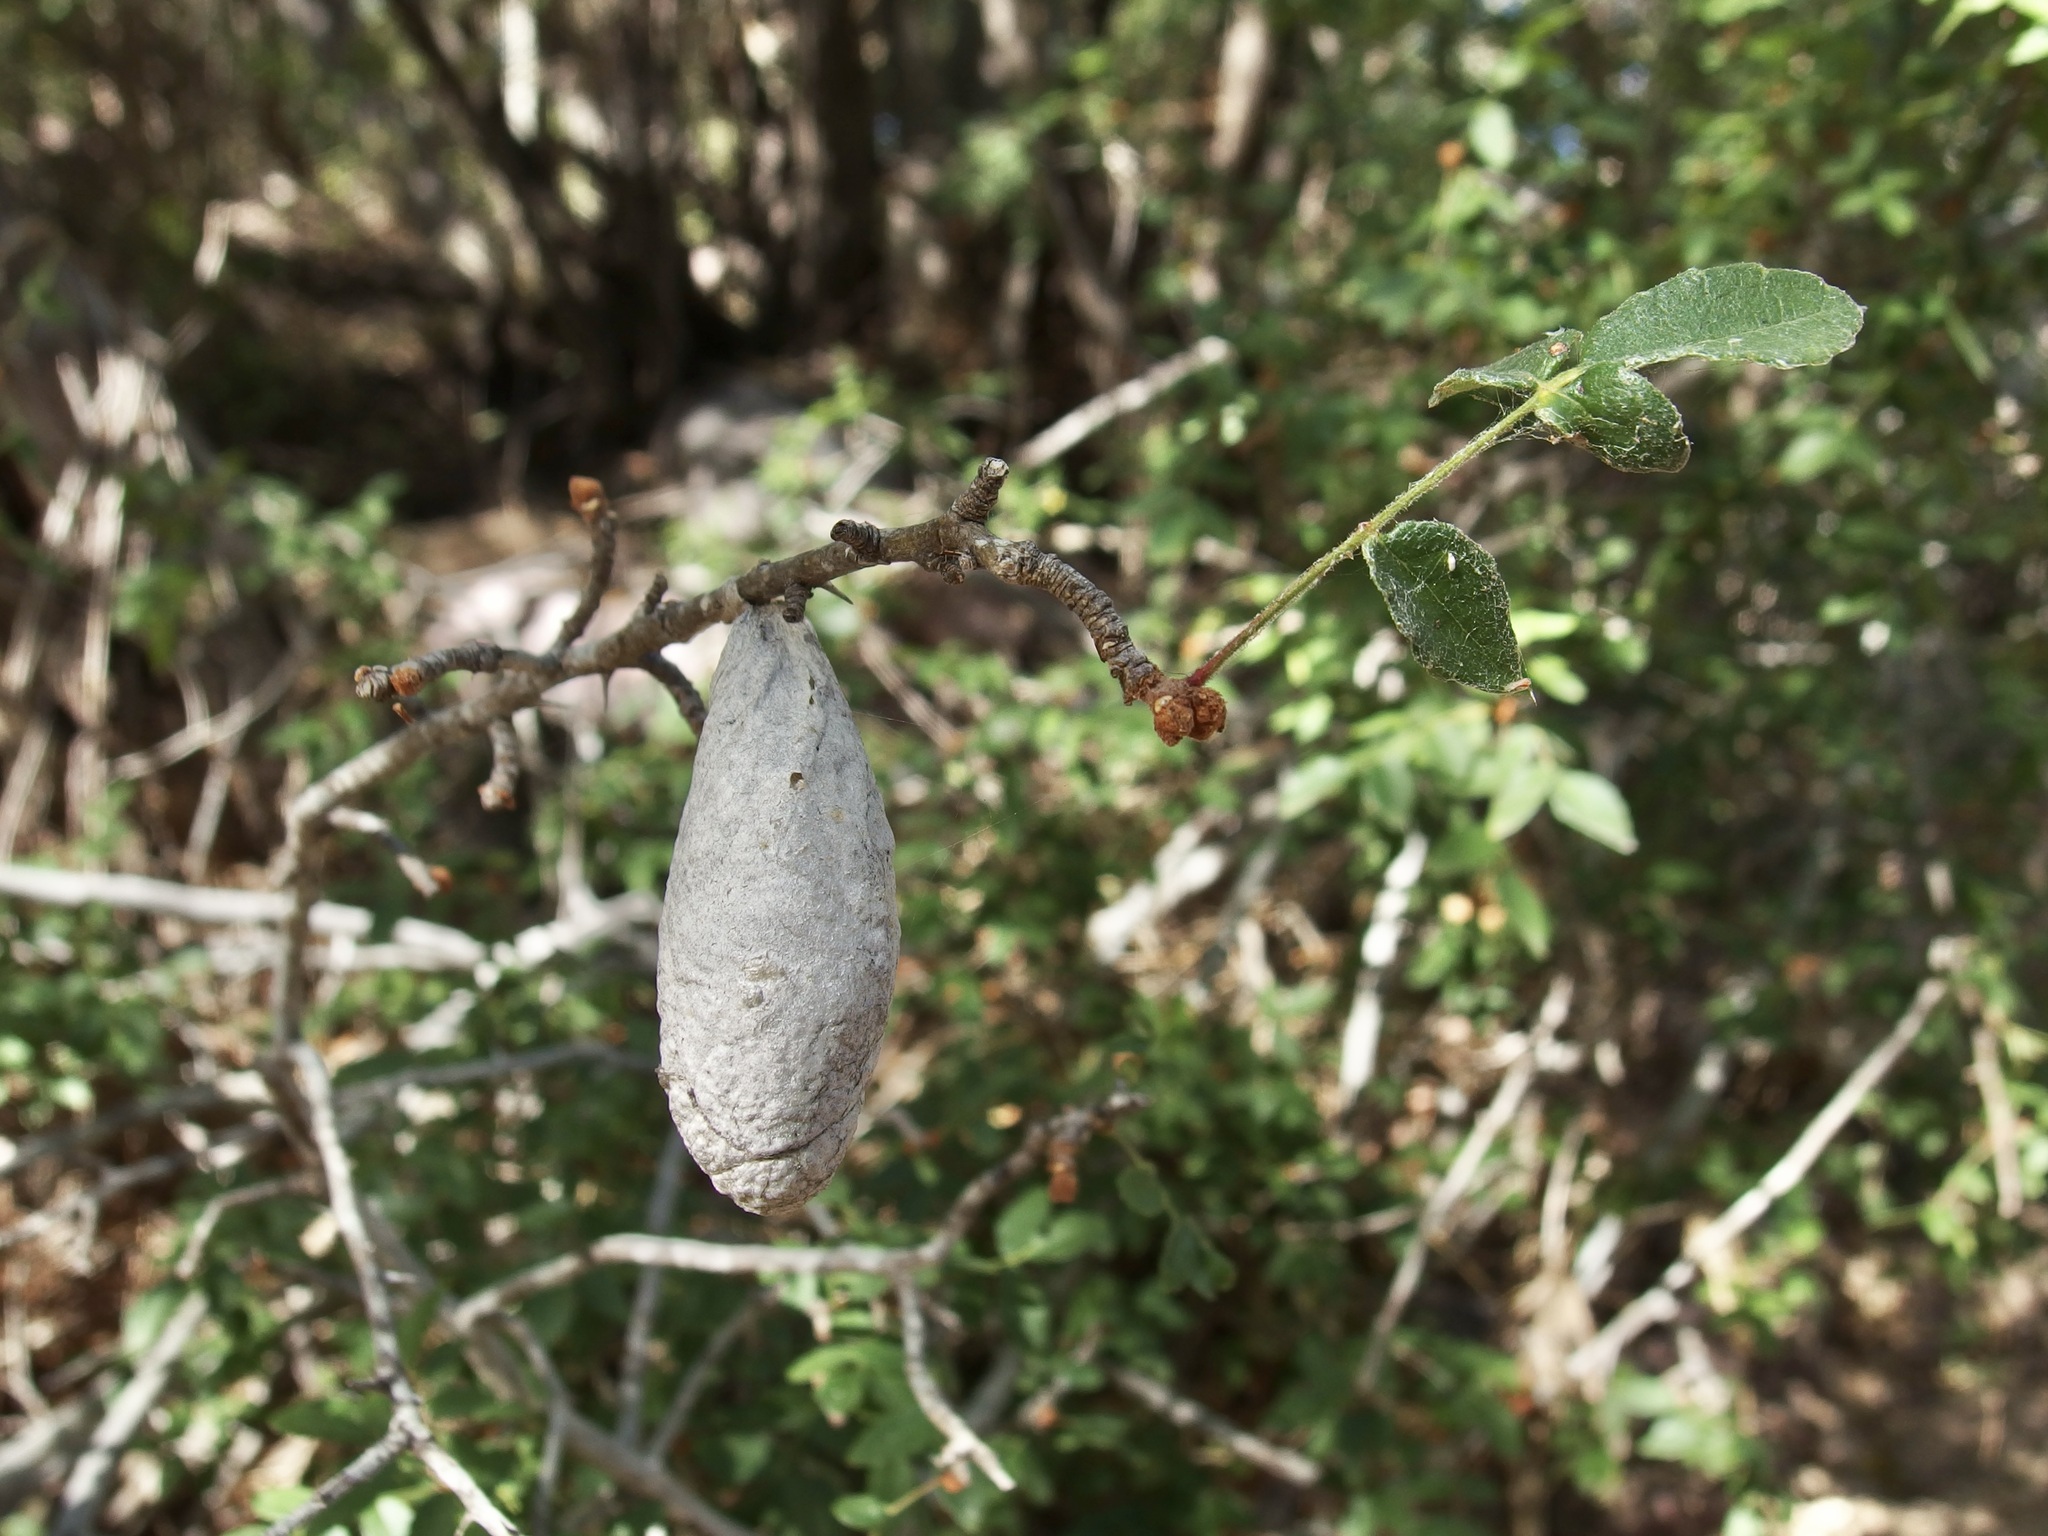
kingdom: Animalia
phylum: Arthropoda
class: Insecta
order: Lepidoptera
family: Saturniidae
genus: Rothschildia
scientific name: Rothschildia cinctus
